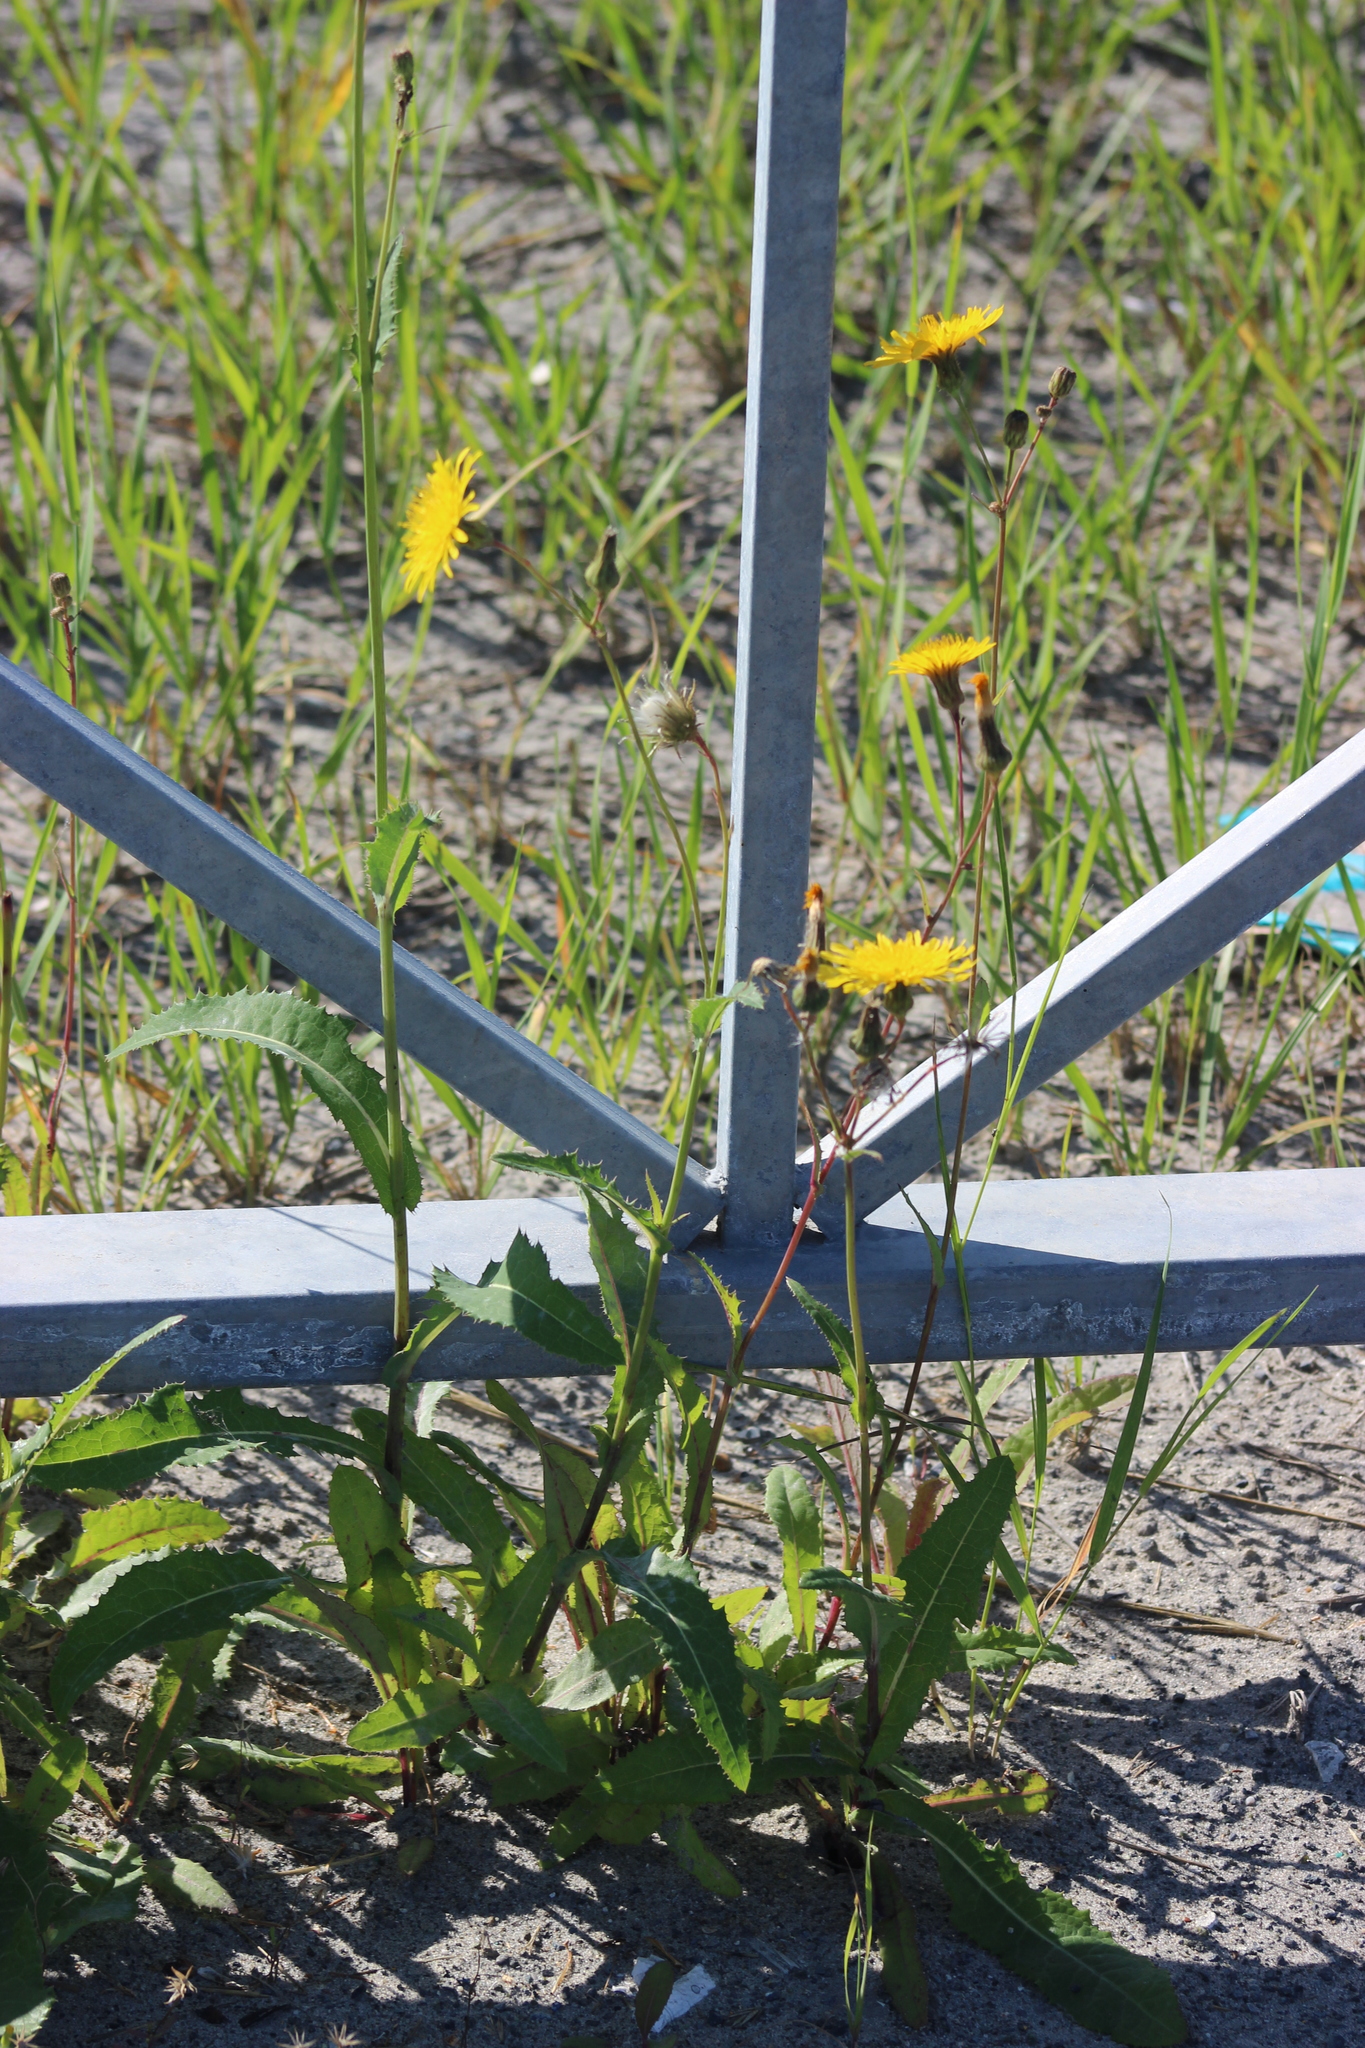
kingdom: Plantae
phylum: Tracheophyta
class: Magnoliopsida
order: Asterales
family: Asteraceae
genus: Sonchus
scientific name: Sonchus arvensis
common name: Perennial sow-thistle
